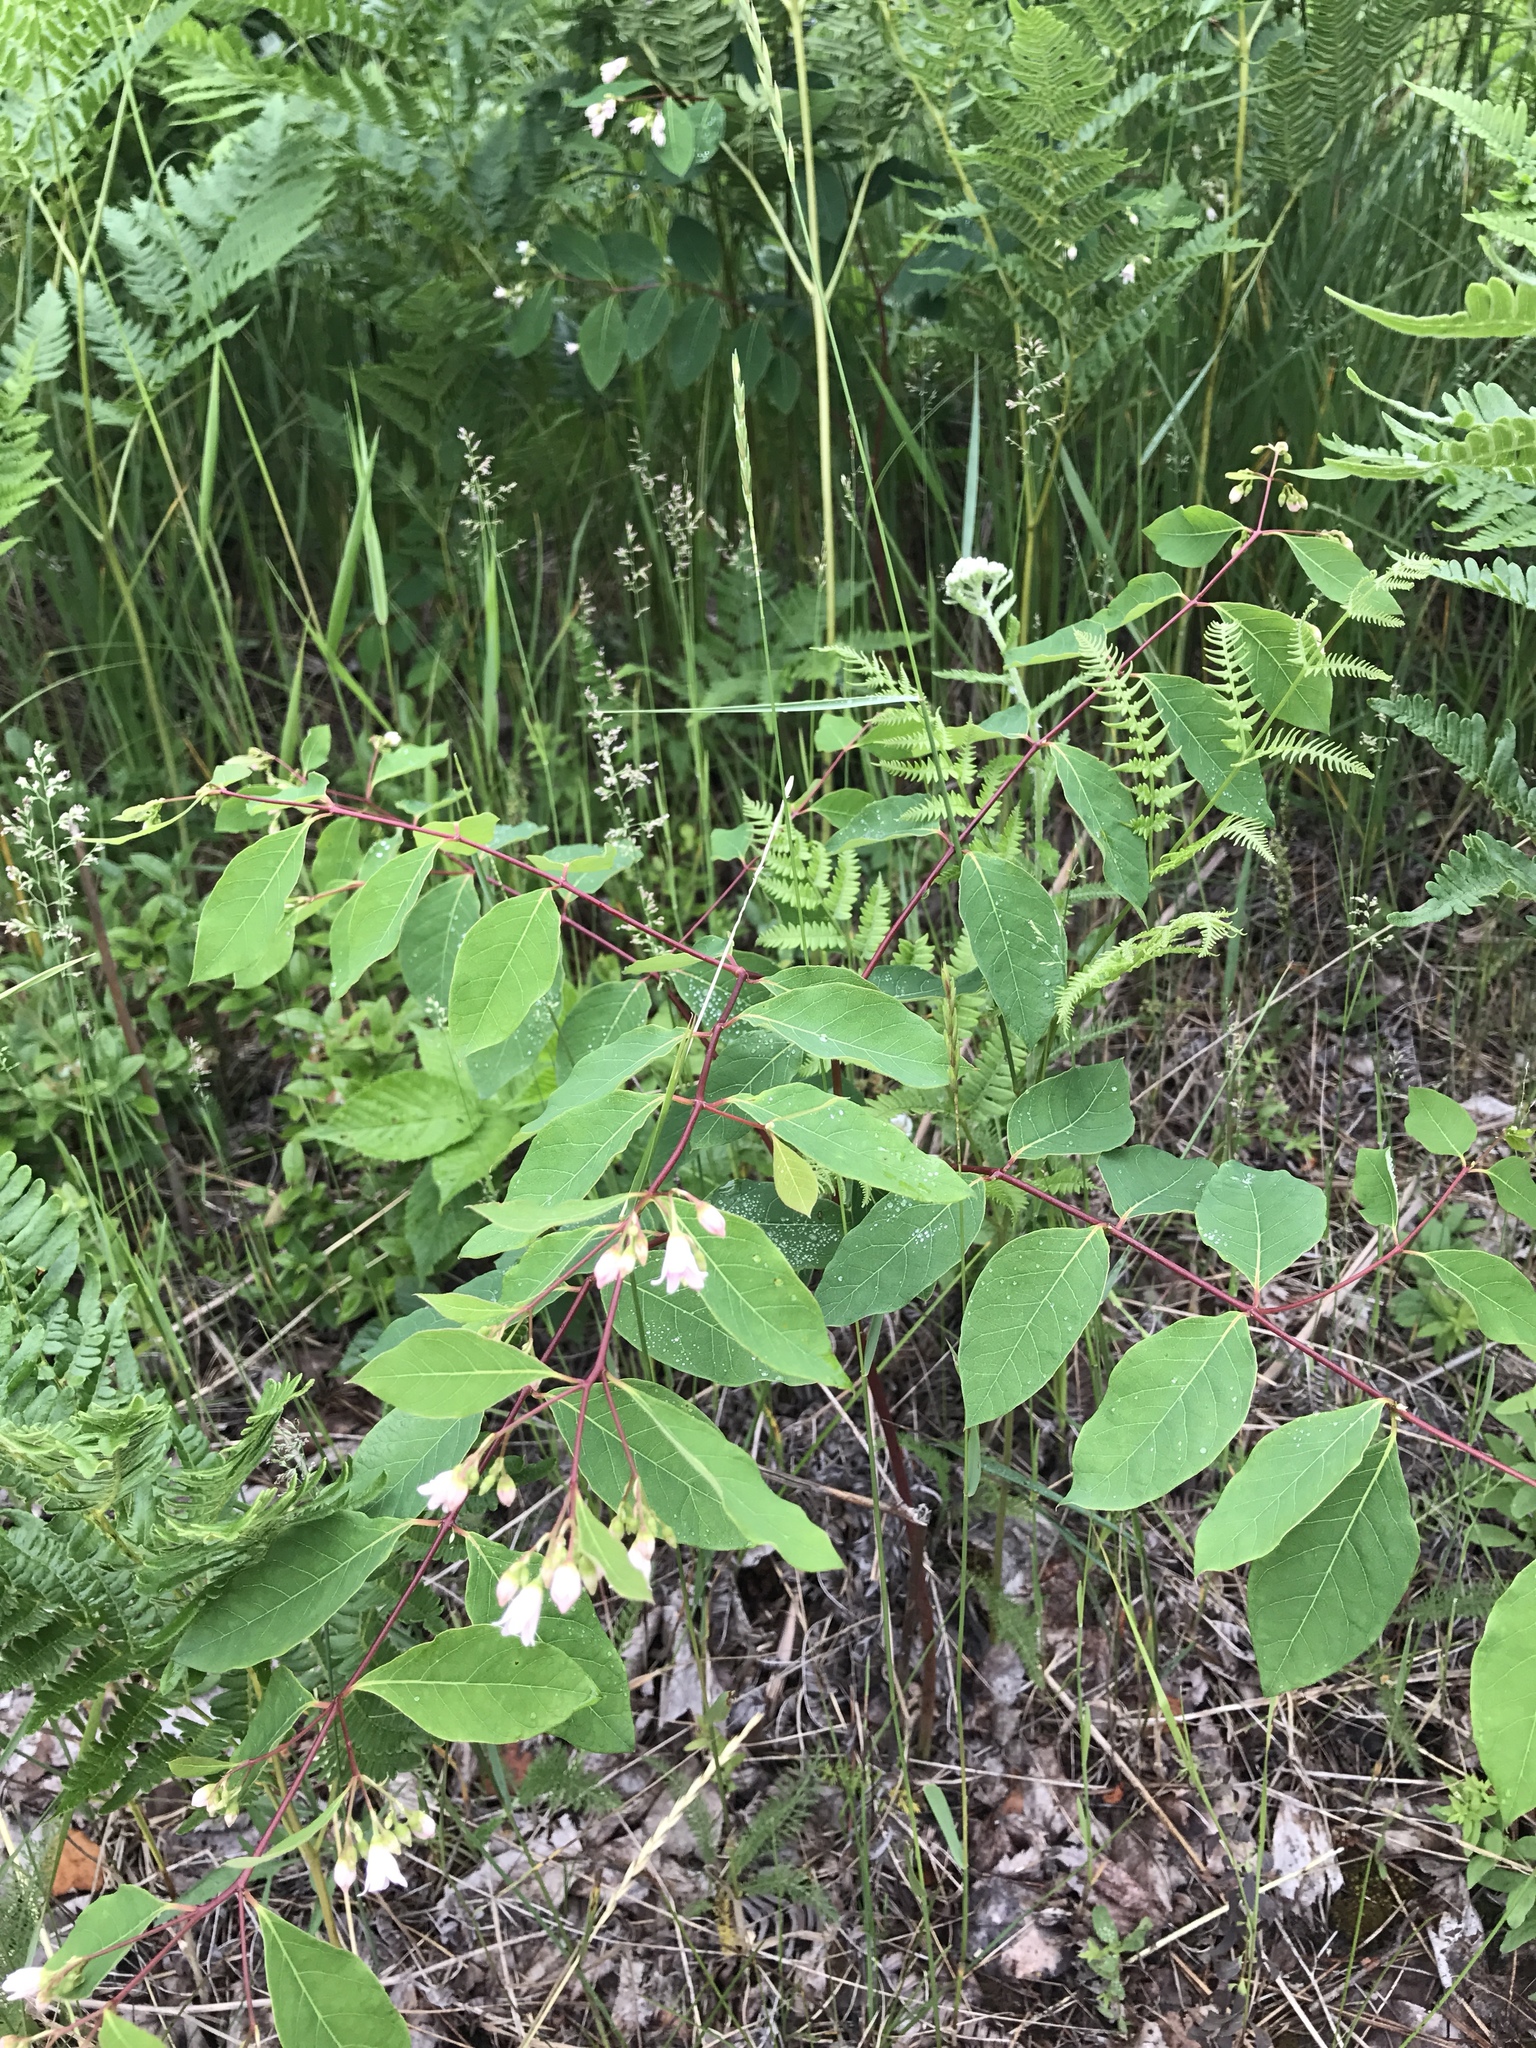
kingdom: Plantae
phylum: Tracheophyta
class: Magnoliopsida
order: Gentianales
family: Apocynaceae
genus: Apocynum
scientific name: Apocynum androsaemifolium
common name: Spreading dogbane
